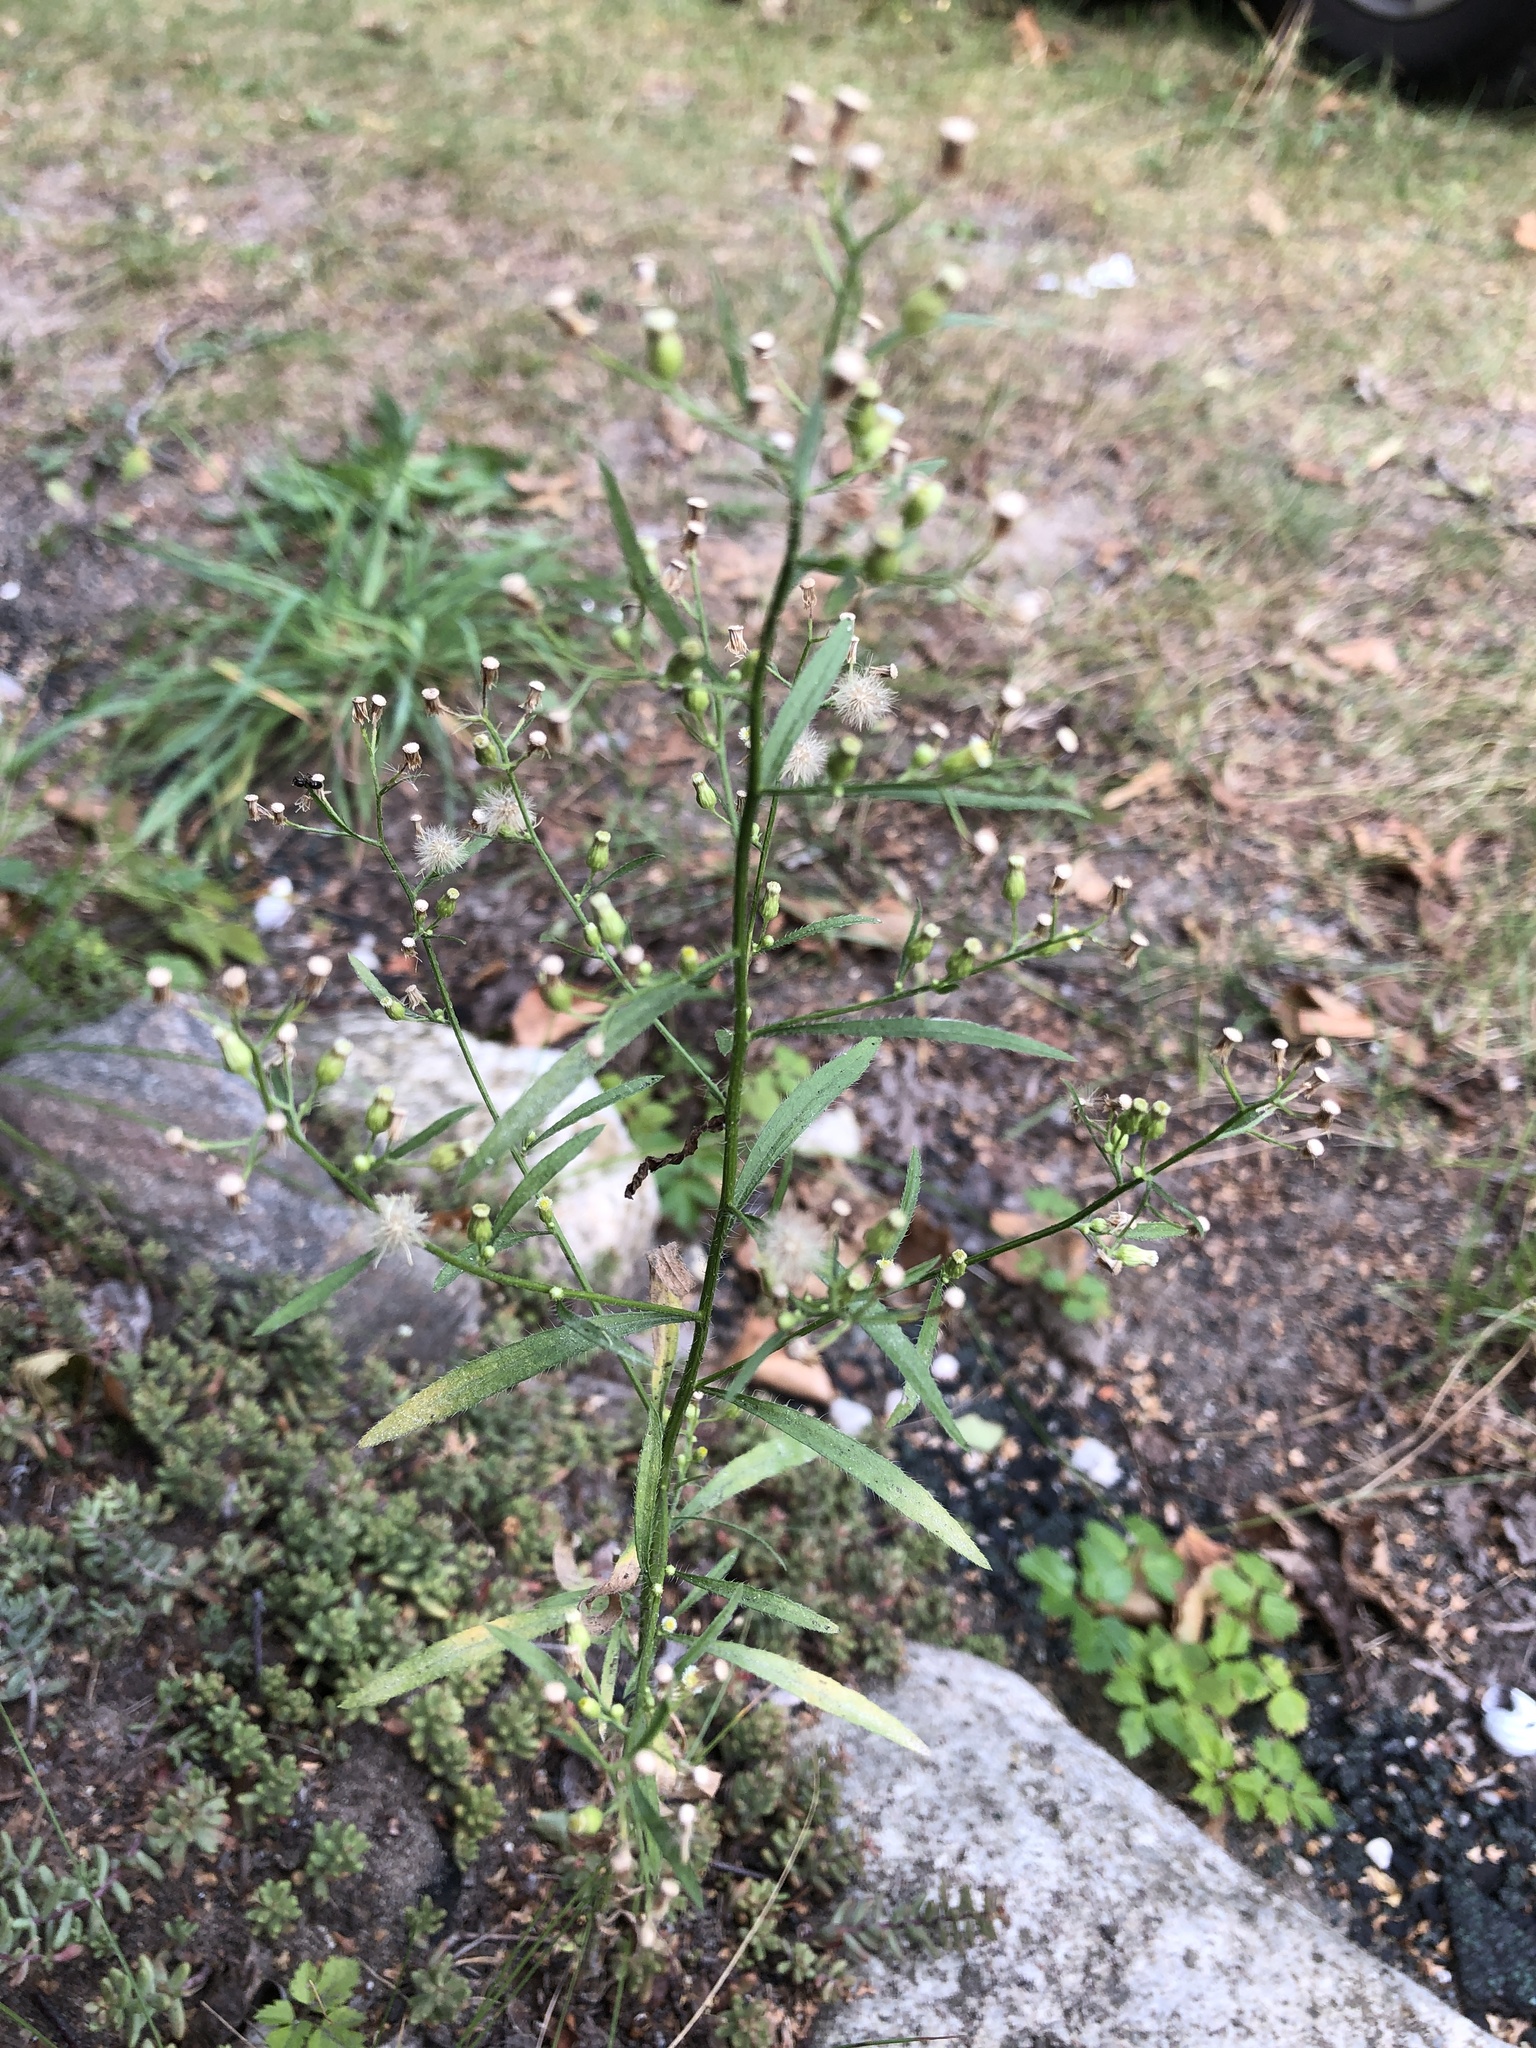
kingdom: Plantae
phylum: Tracheophyta
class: Magnoliopsida
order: Asterales
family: Asteraceae
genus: Erigeron
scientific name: Erigeron canadensis
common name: Canadian fleabane
